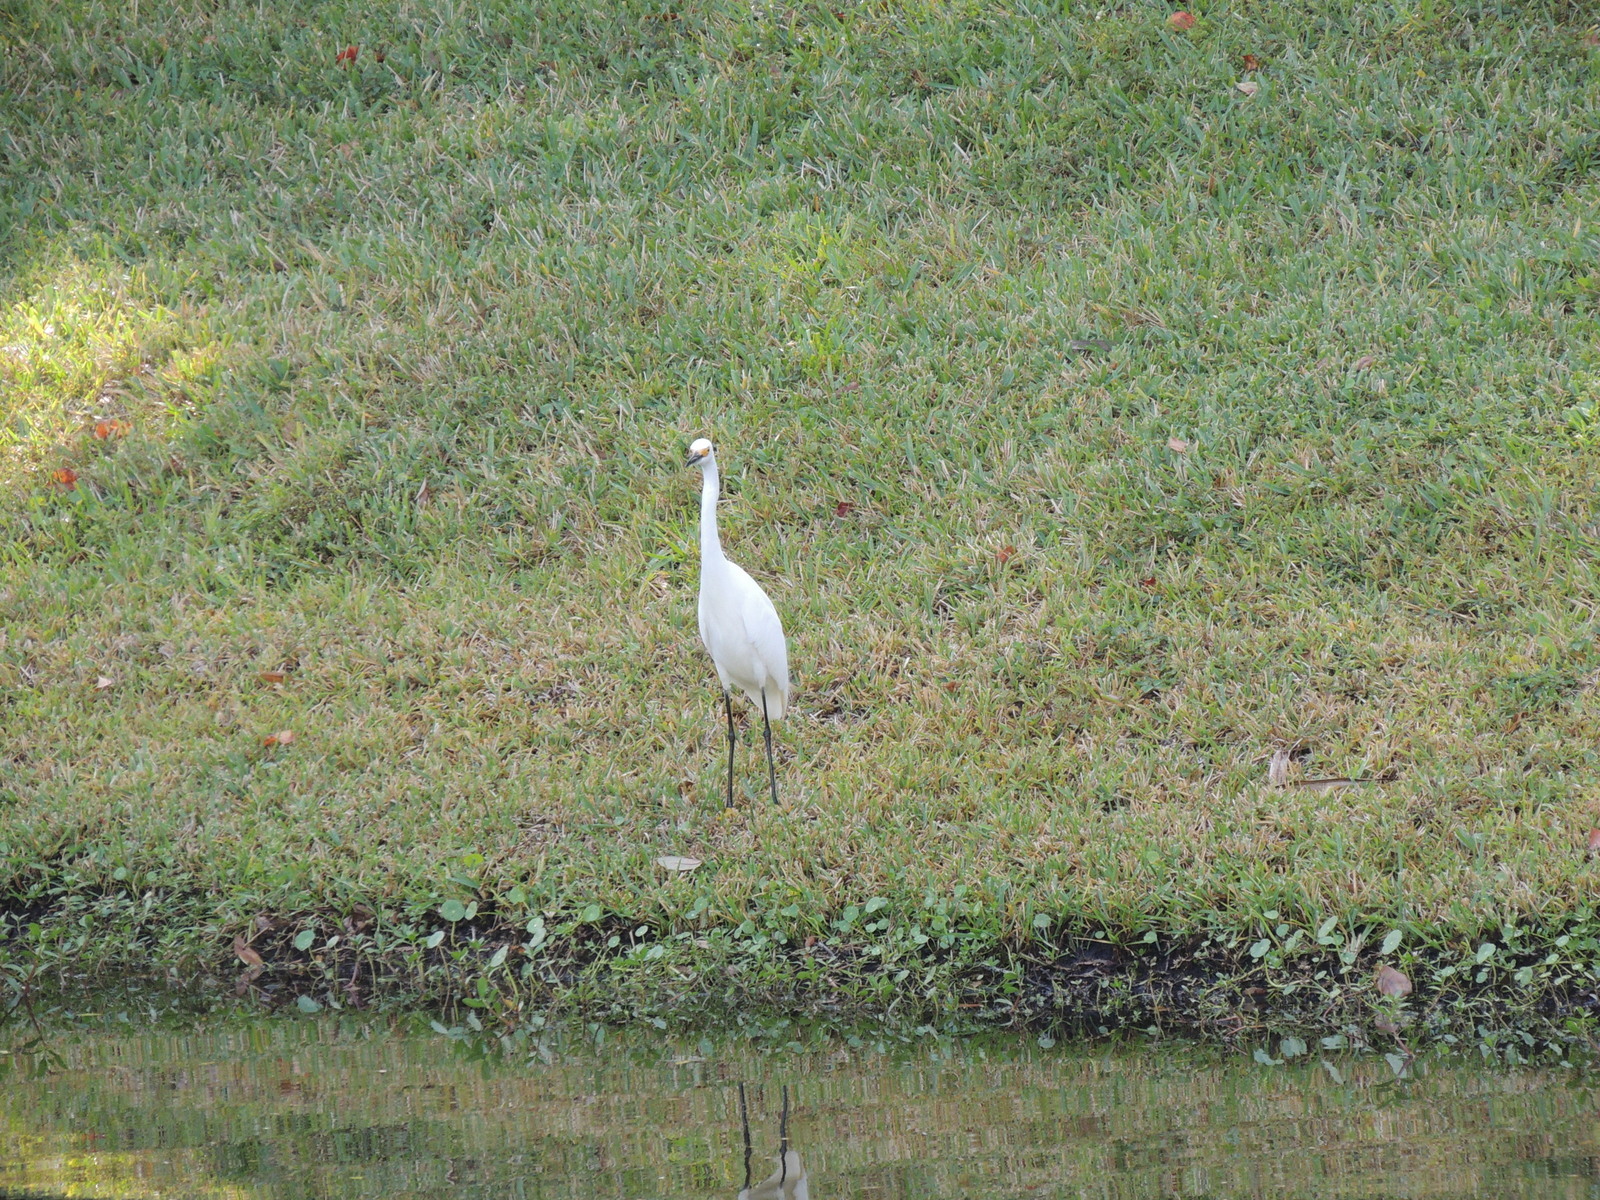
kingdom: Animalia
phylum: Chordata
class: Aves
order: Pelecaniformes
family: Ardeidae
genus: Egretta
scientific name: Egretta thula
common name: Snowy egret
